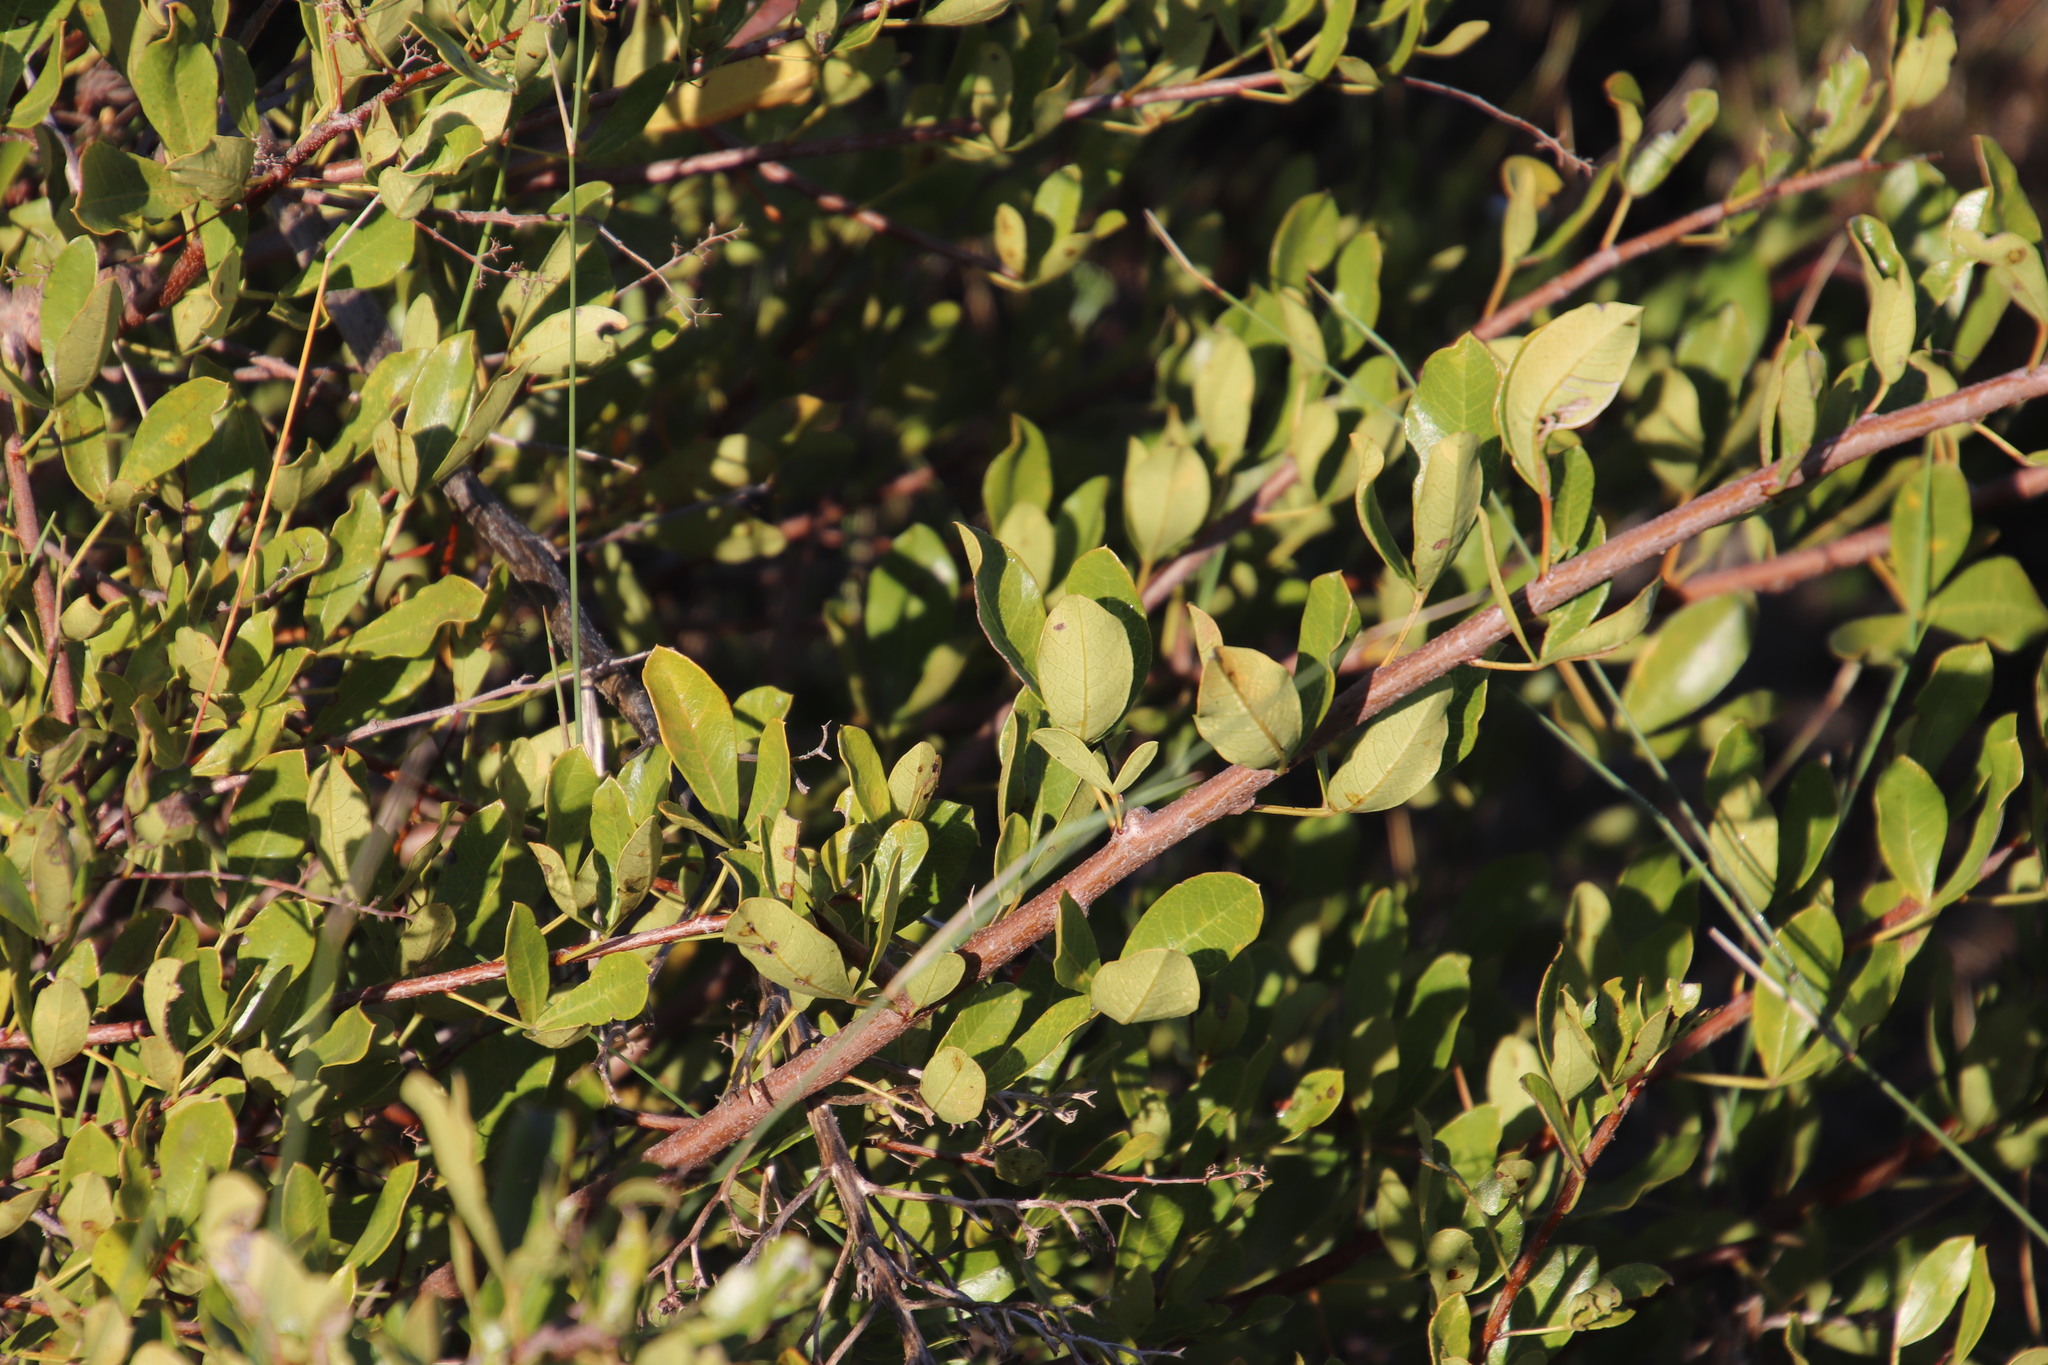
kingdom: Plantae
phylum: Tracheophyta
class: Magnoliopsida
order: Sapindales
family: Anacardiaceae
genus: Searsia
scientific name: Searsia laevigata
